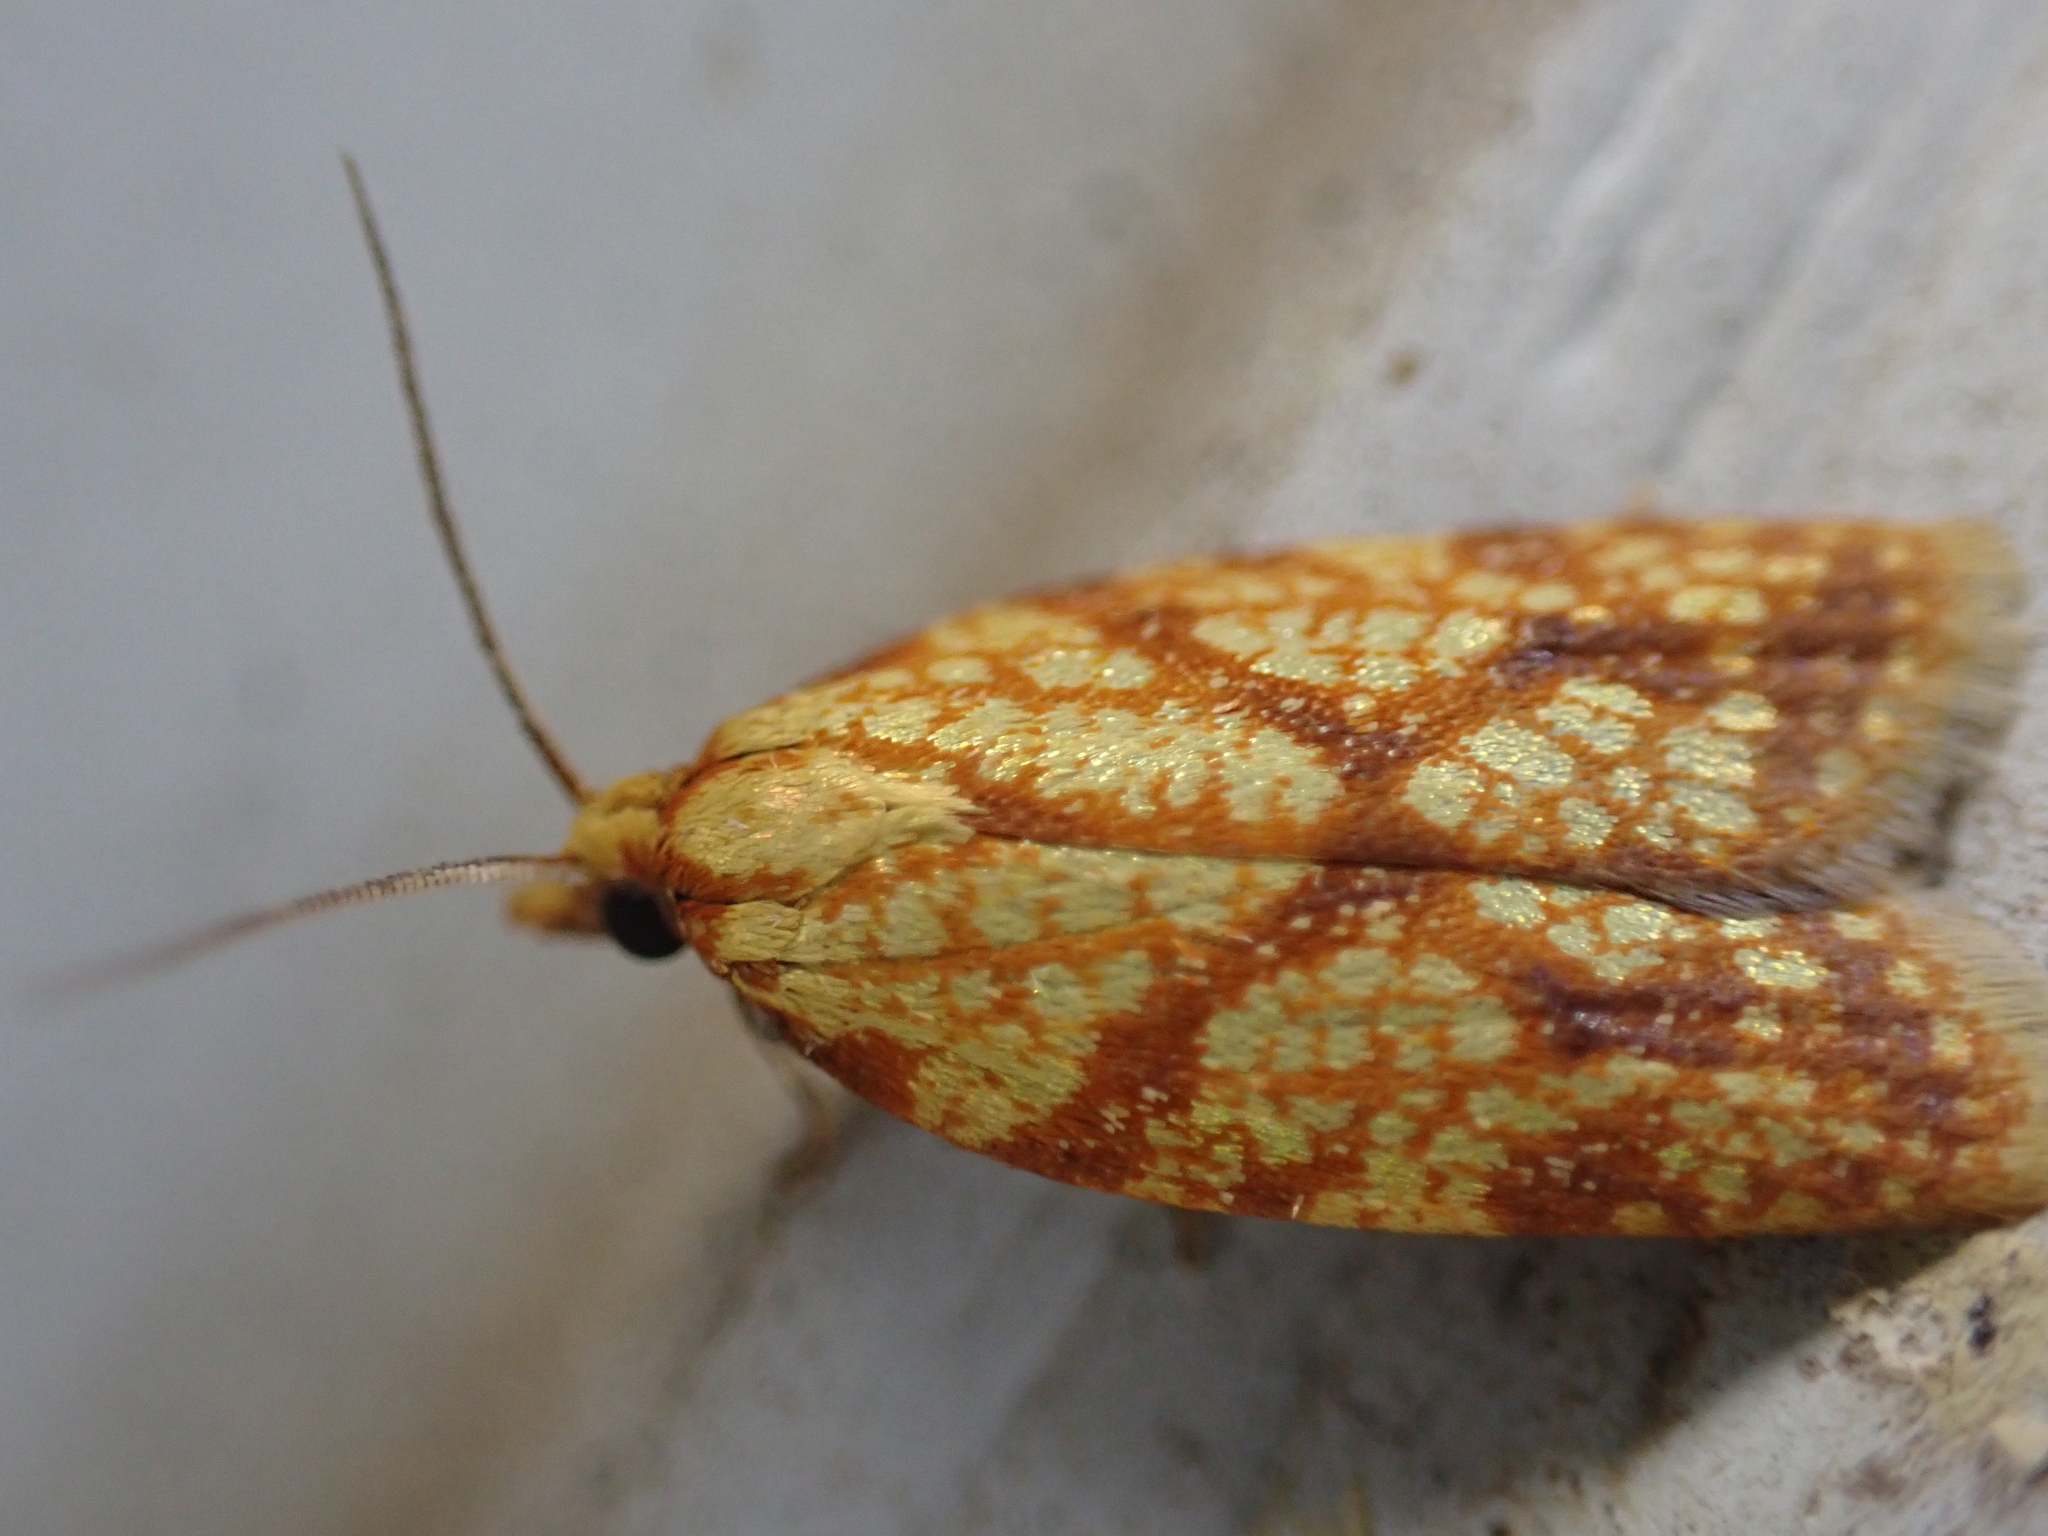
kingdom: Animalia
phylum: Arthropoda
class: Insecta
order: Lepidoptera
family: Tortricidae
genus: Sparganothis
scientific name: Sparganothis sulfureana
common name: Sparganothis fruitworm moth
